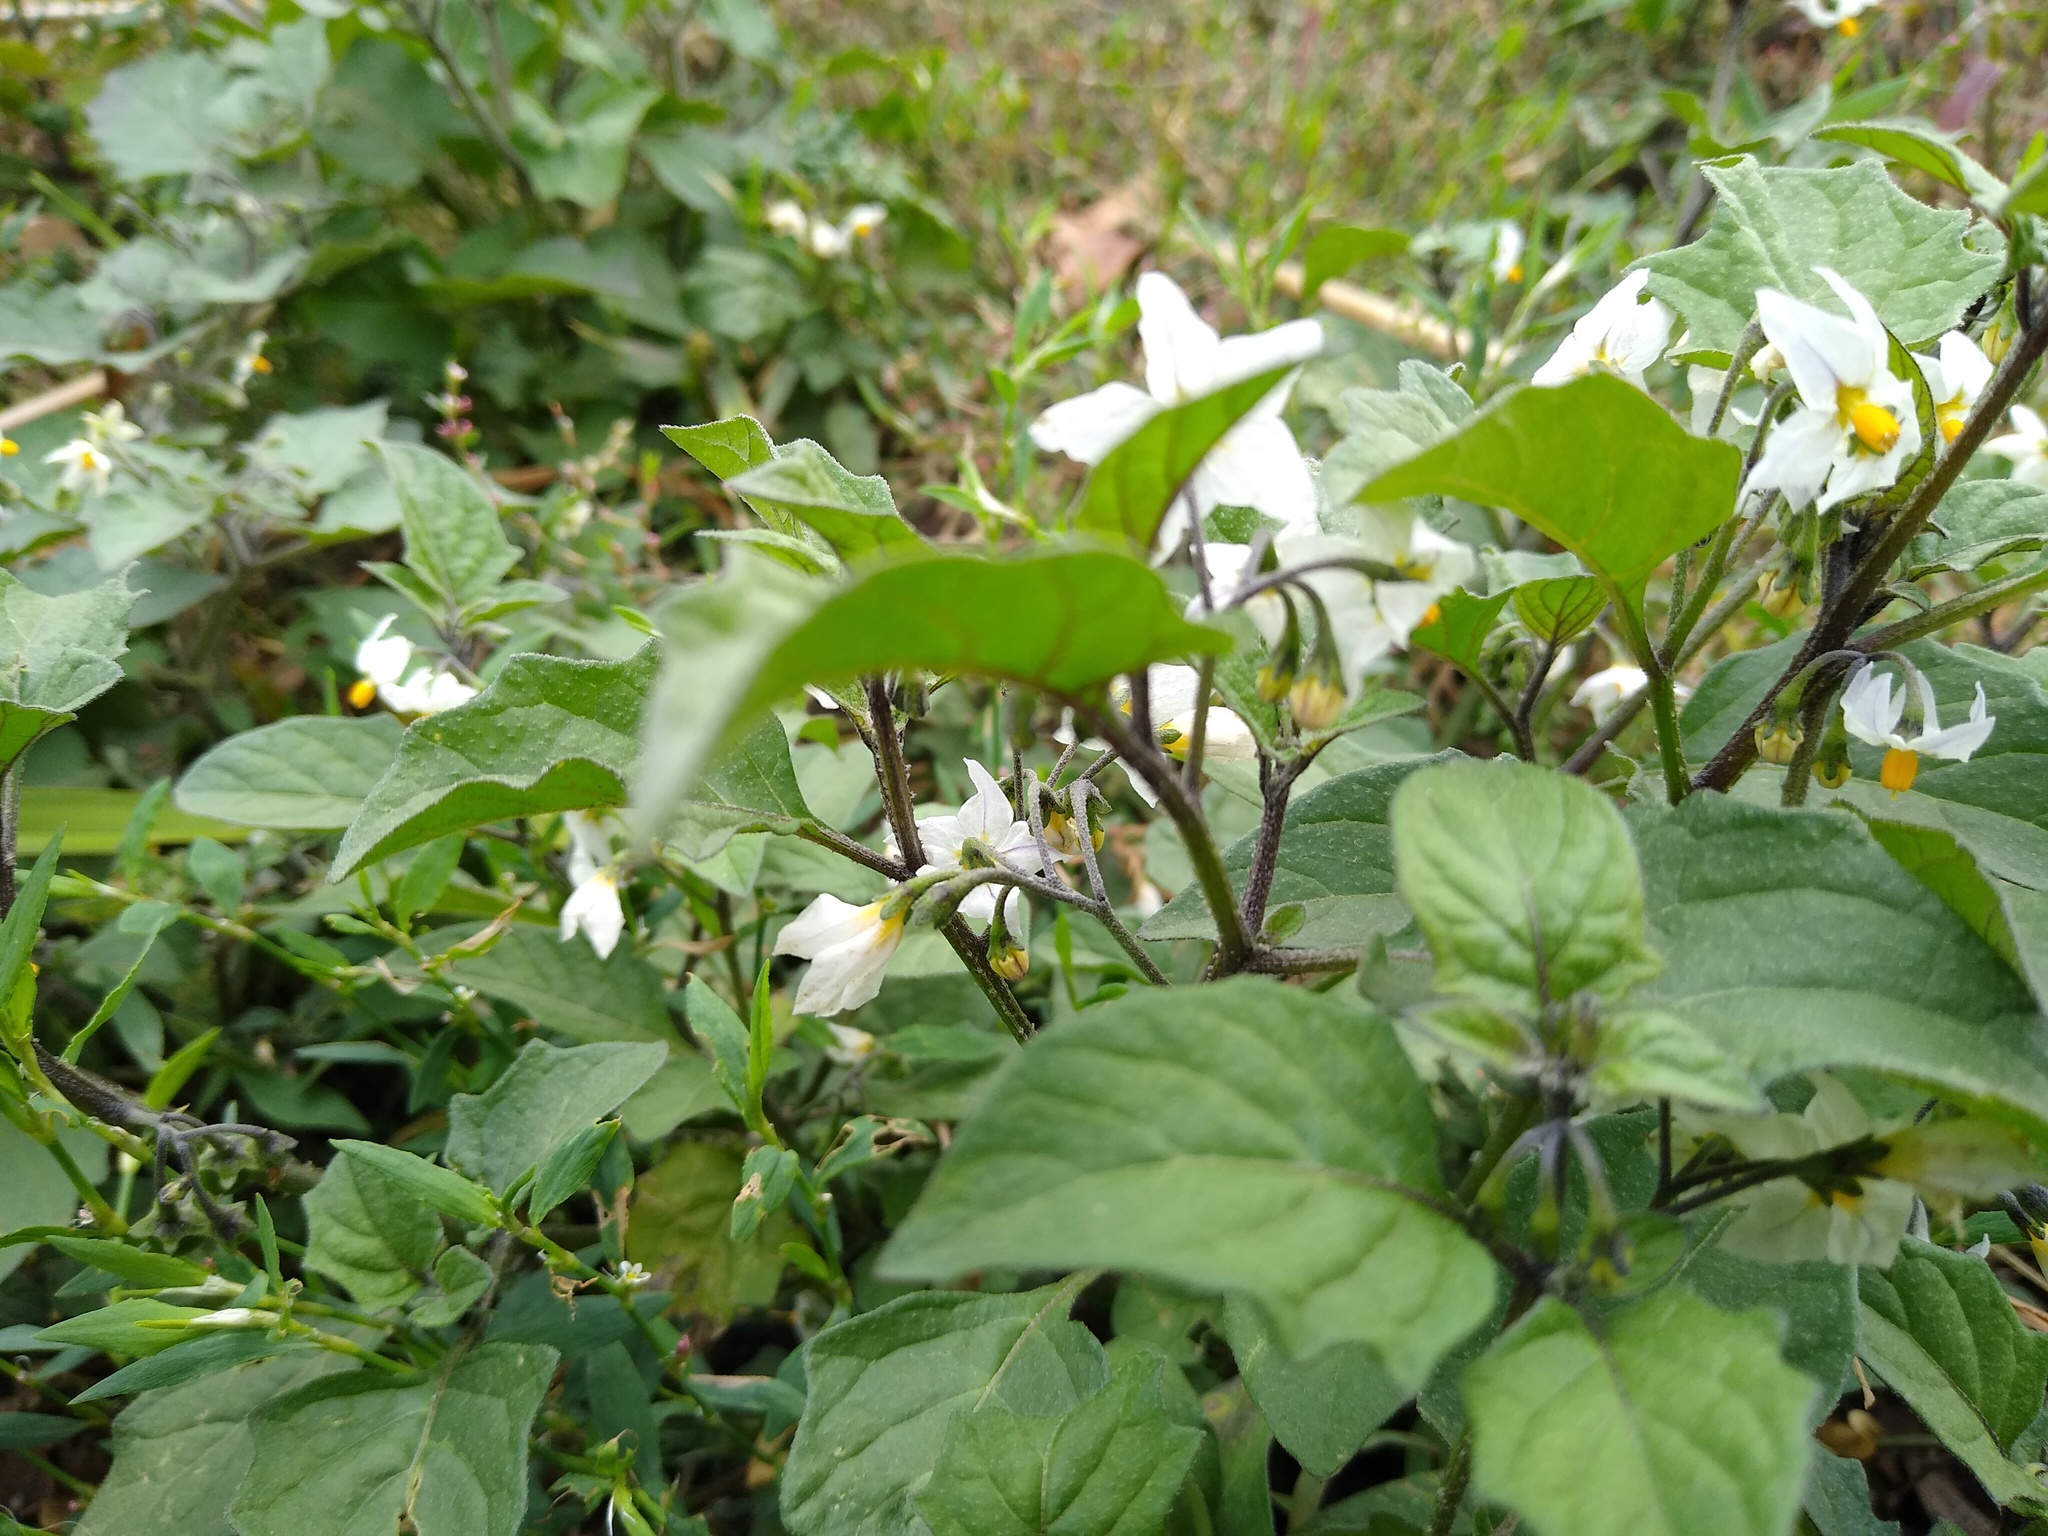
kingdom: Plantae
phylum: Tracheophyta
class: Magnoliopsida
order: Solanales
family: Solanaceae
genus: Solanum
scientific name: Solanum nigrum
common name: Black nightshade
